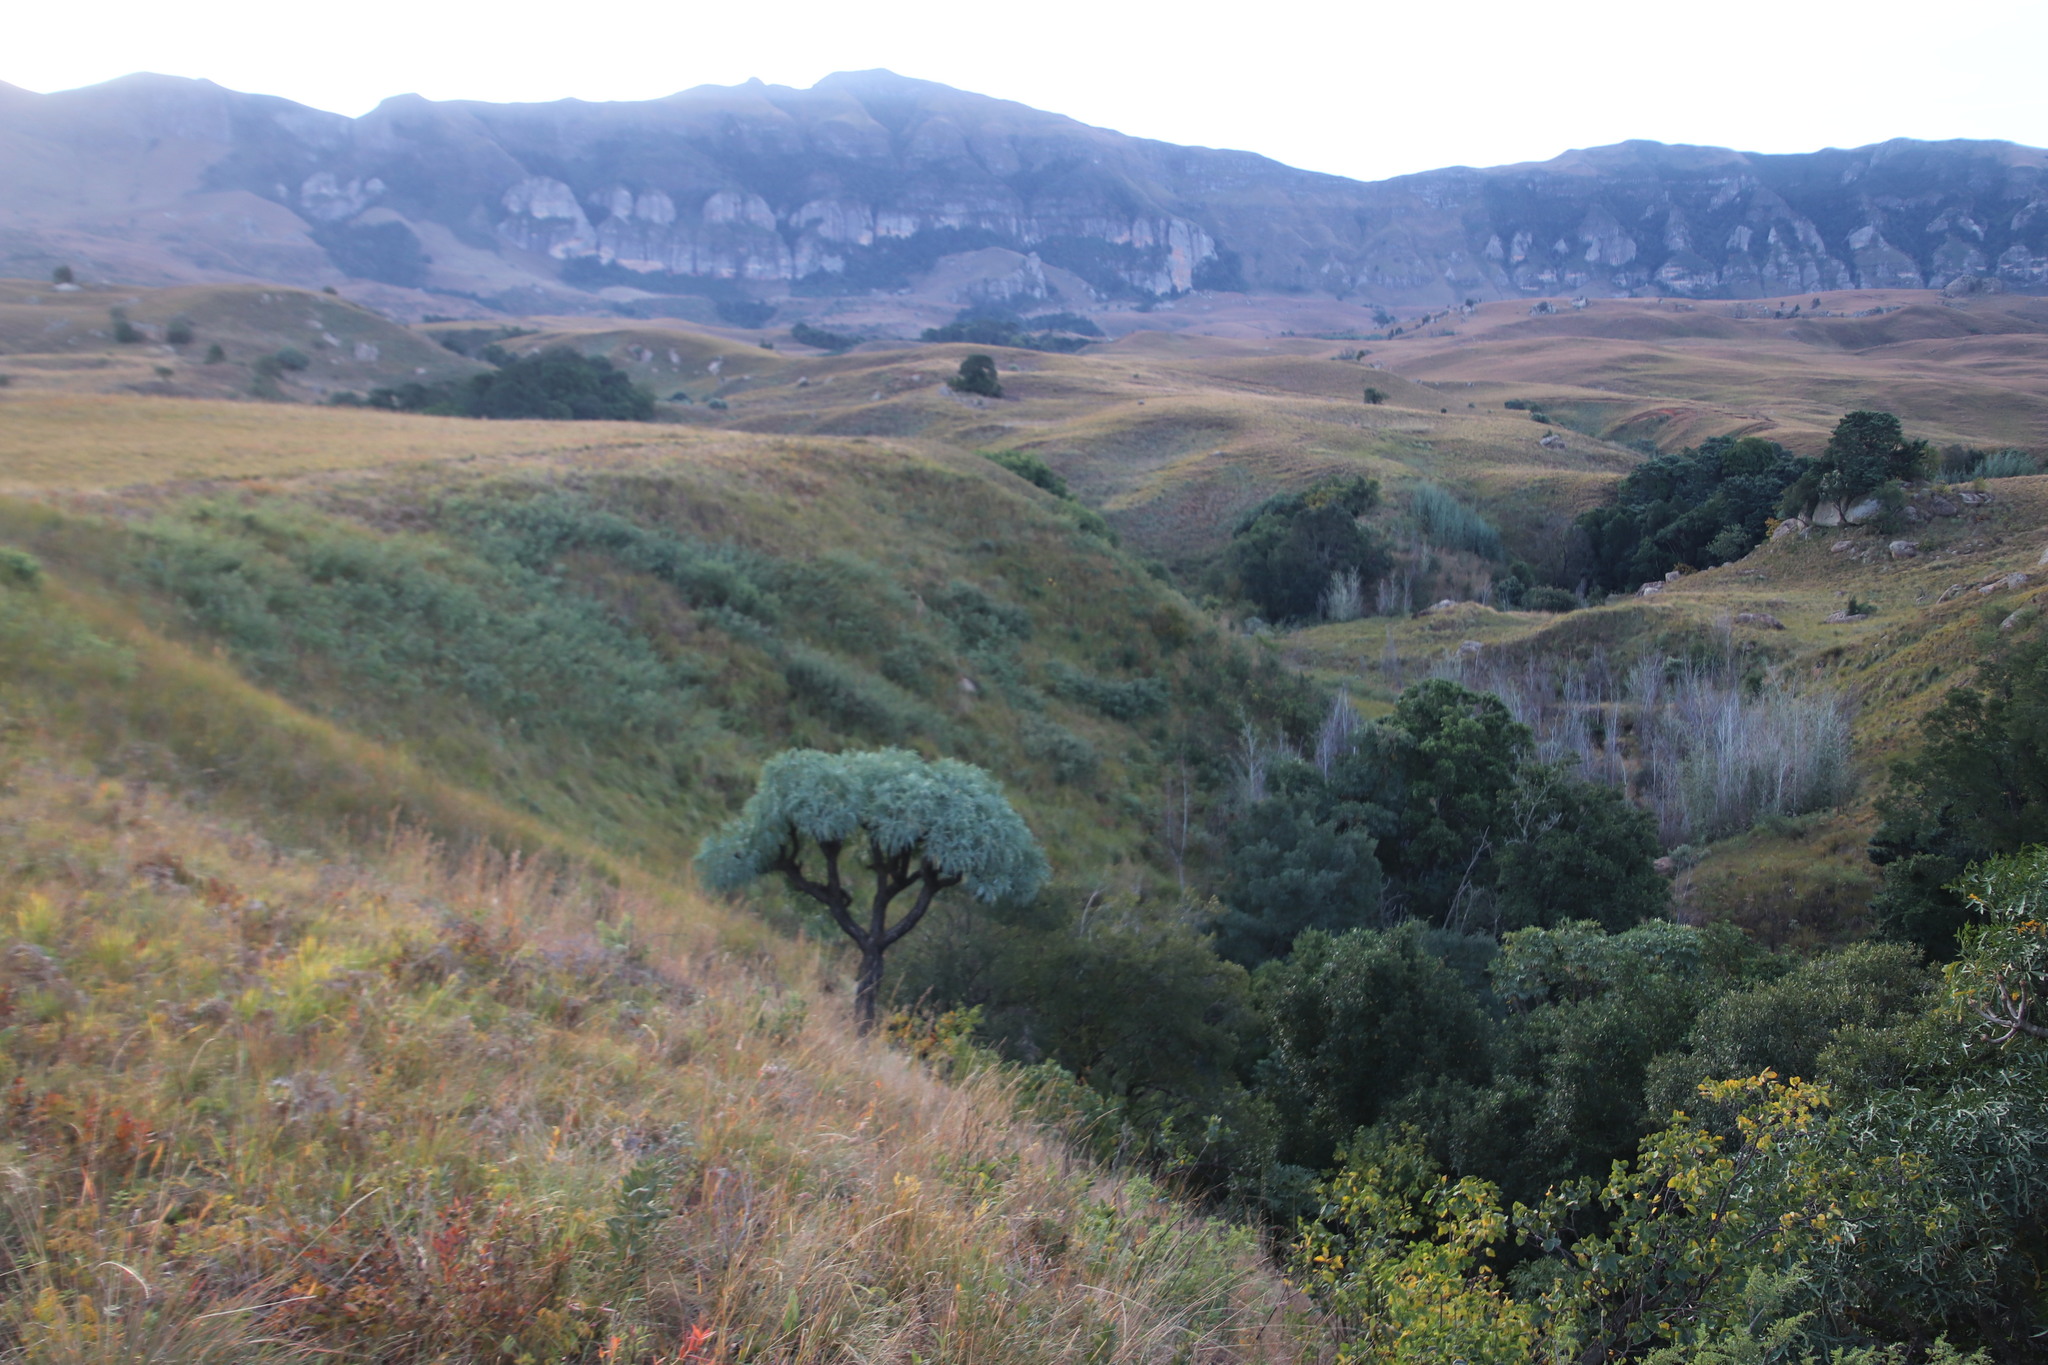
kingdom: Plantae
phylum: Tracheophyta
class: Magnoliopsida
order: Apiales
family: Araliaceae
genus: Cussonia
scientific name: Cussonia paniculata
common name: Cabbagetree
